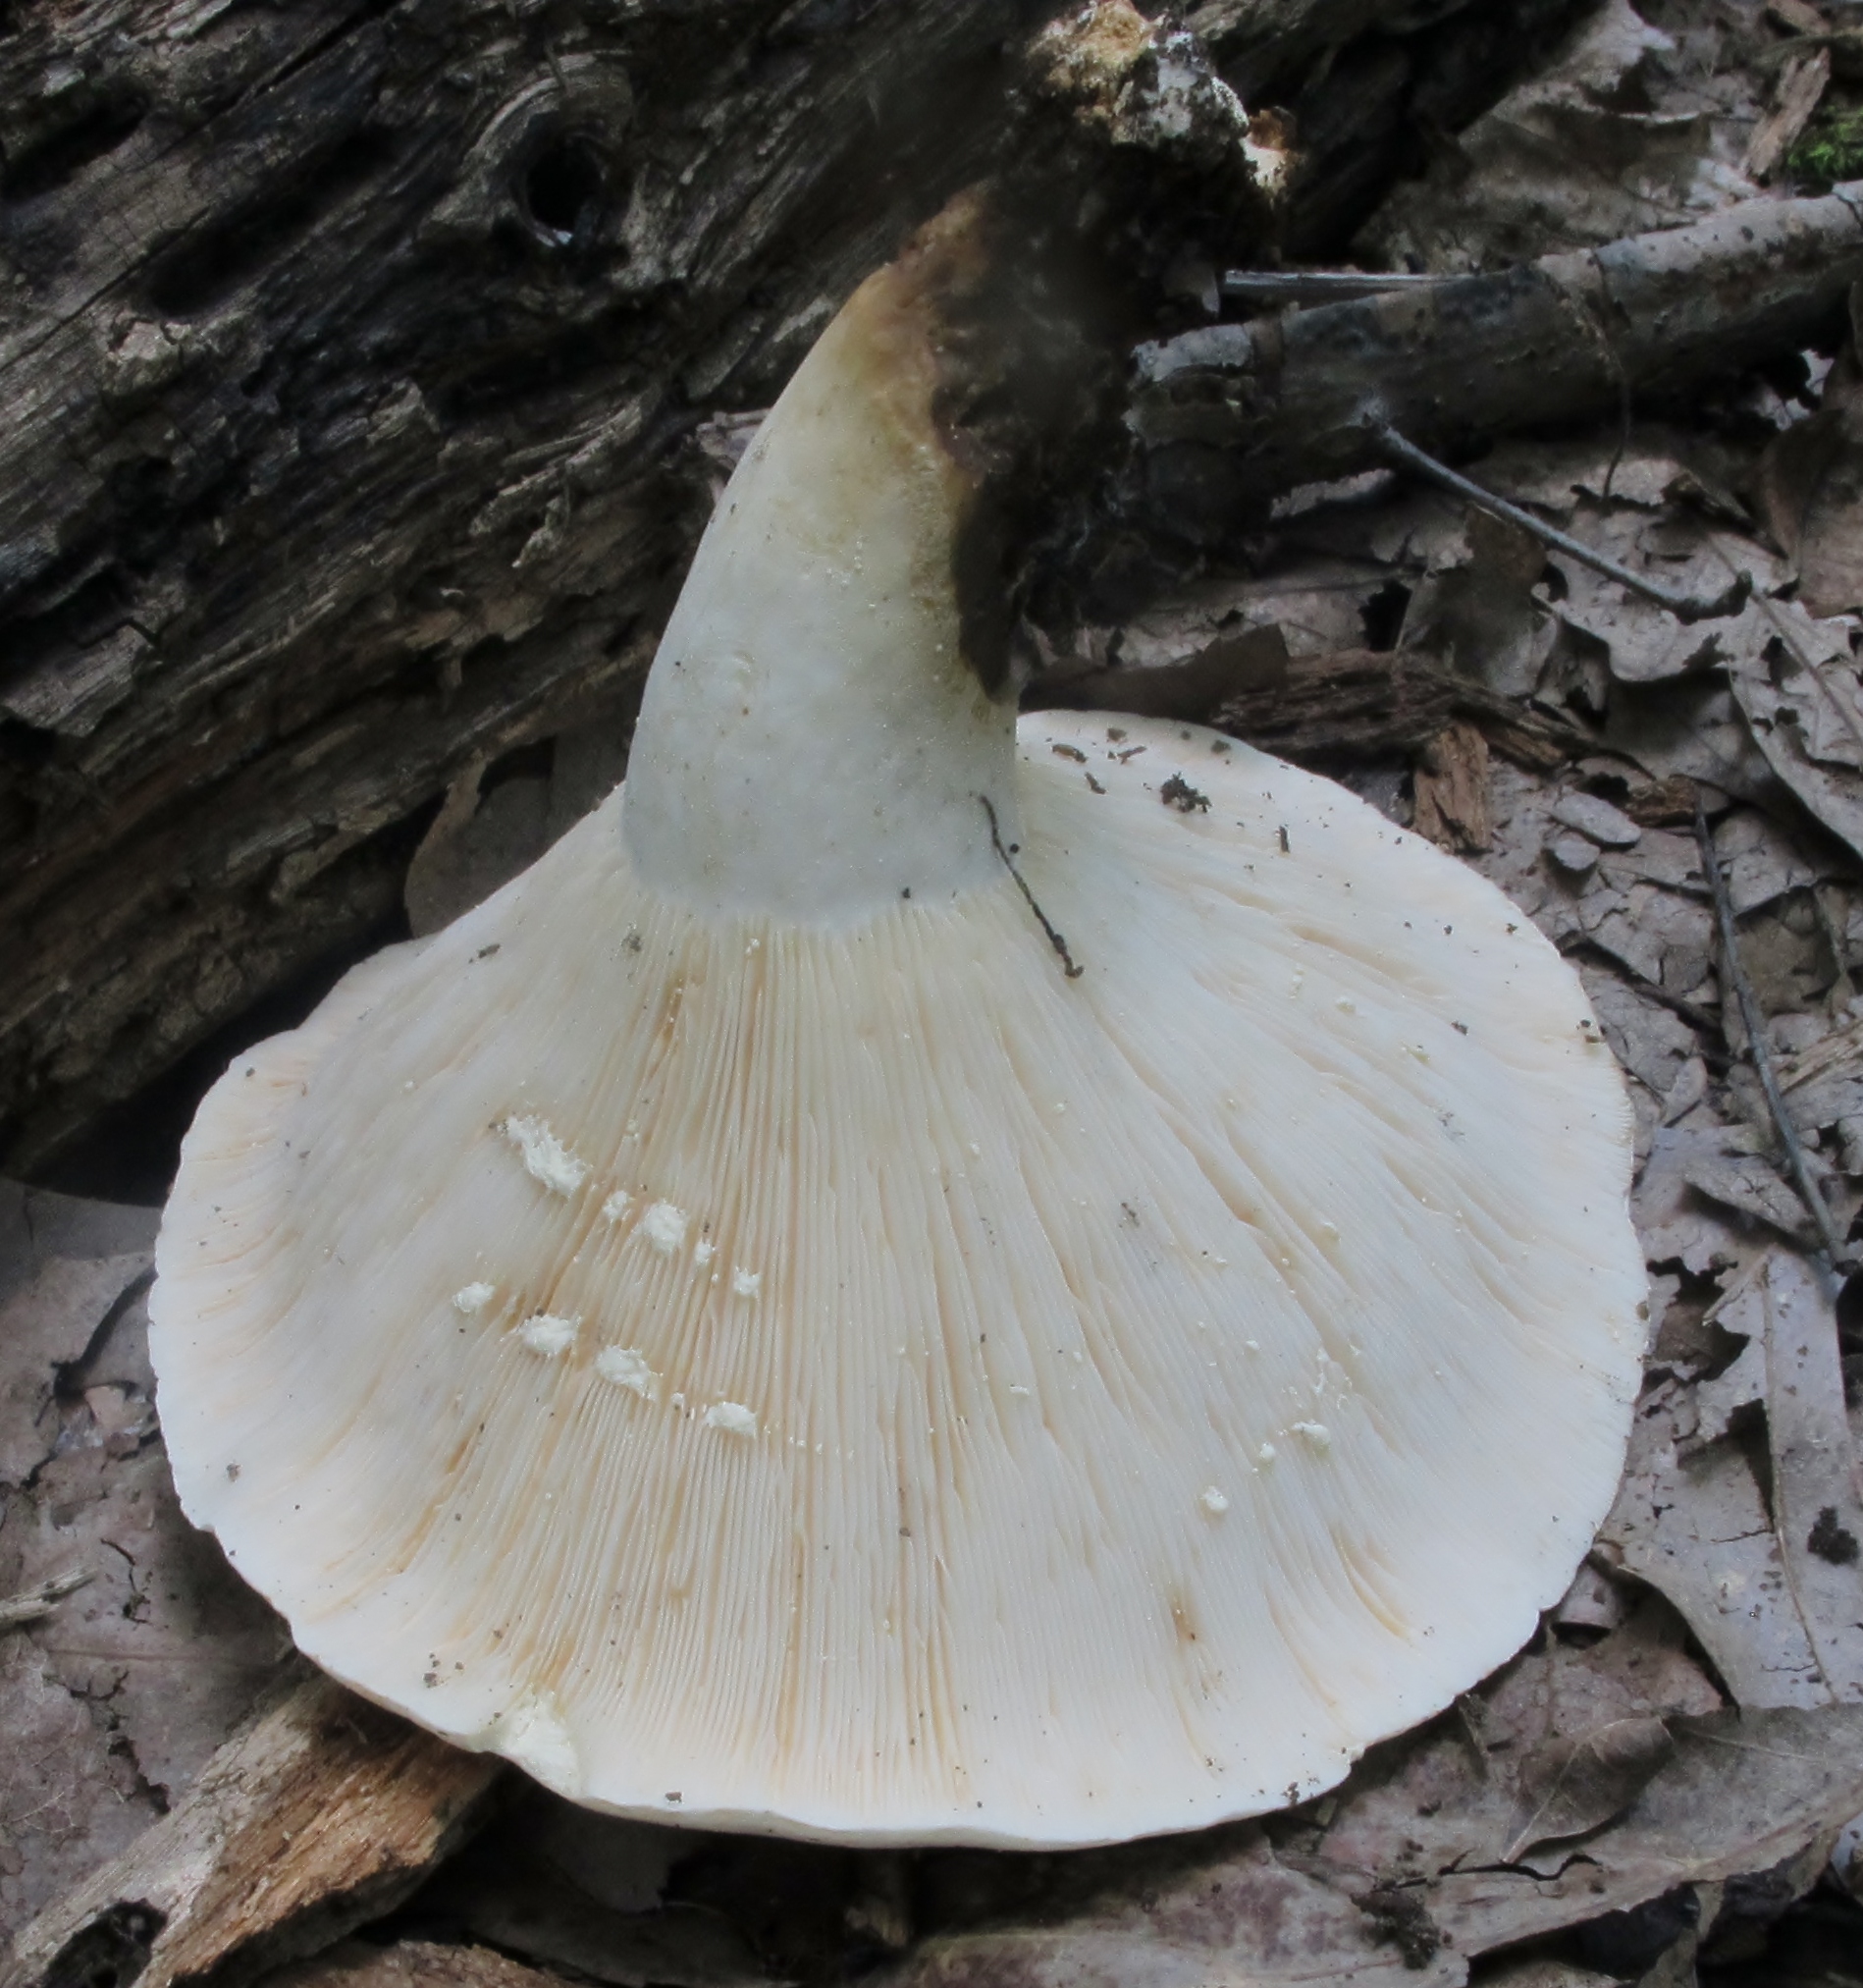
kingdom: Fungi
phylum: Basidiomycota
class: Agaricomycetes
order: Russulales
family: Russulaceae
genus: Lactifluus
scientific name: Lactifluus piperatus
